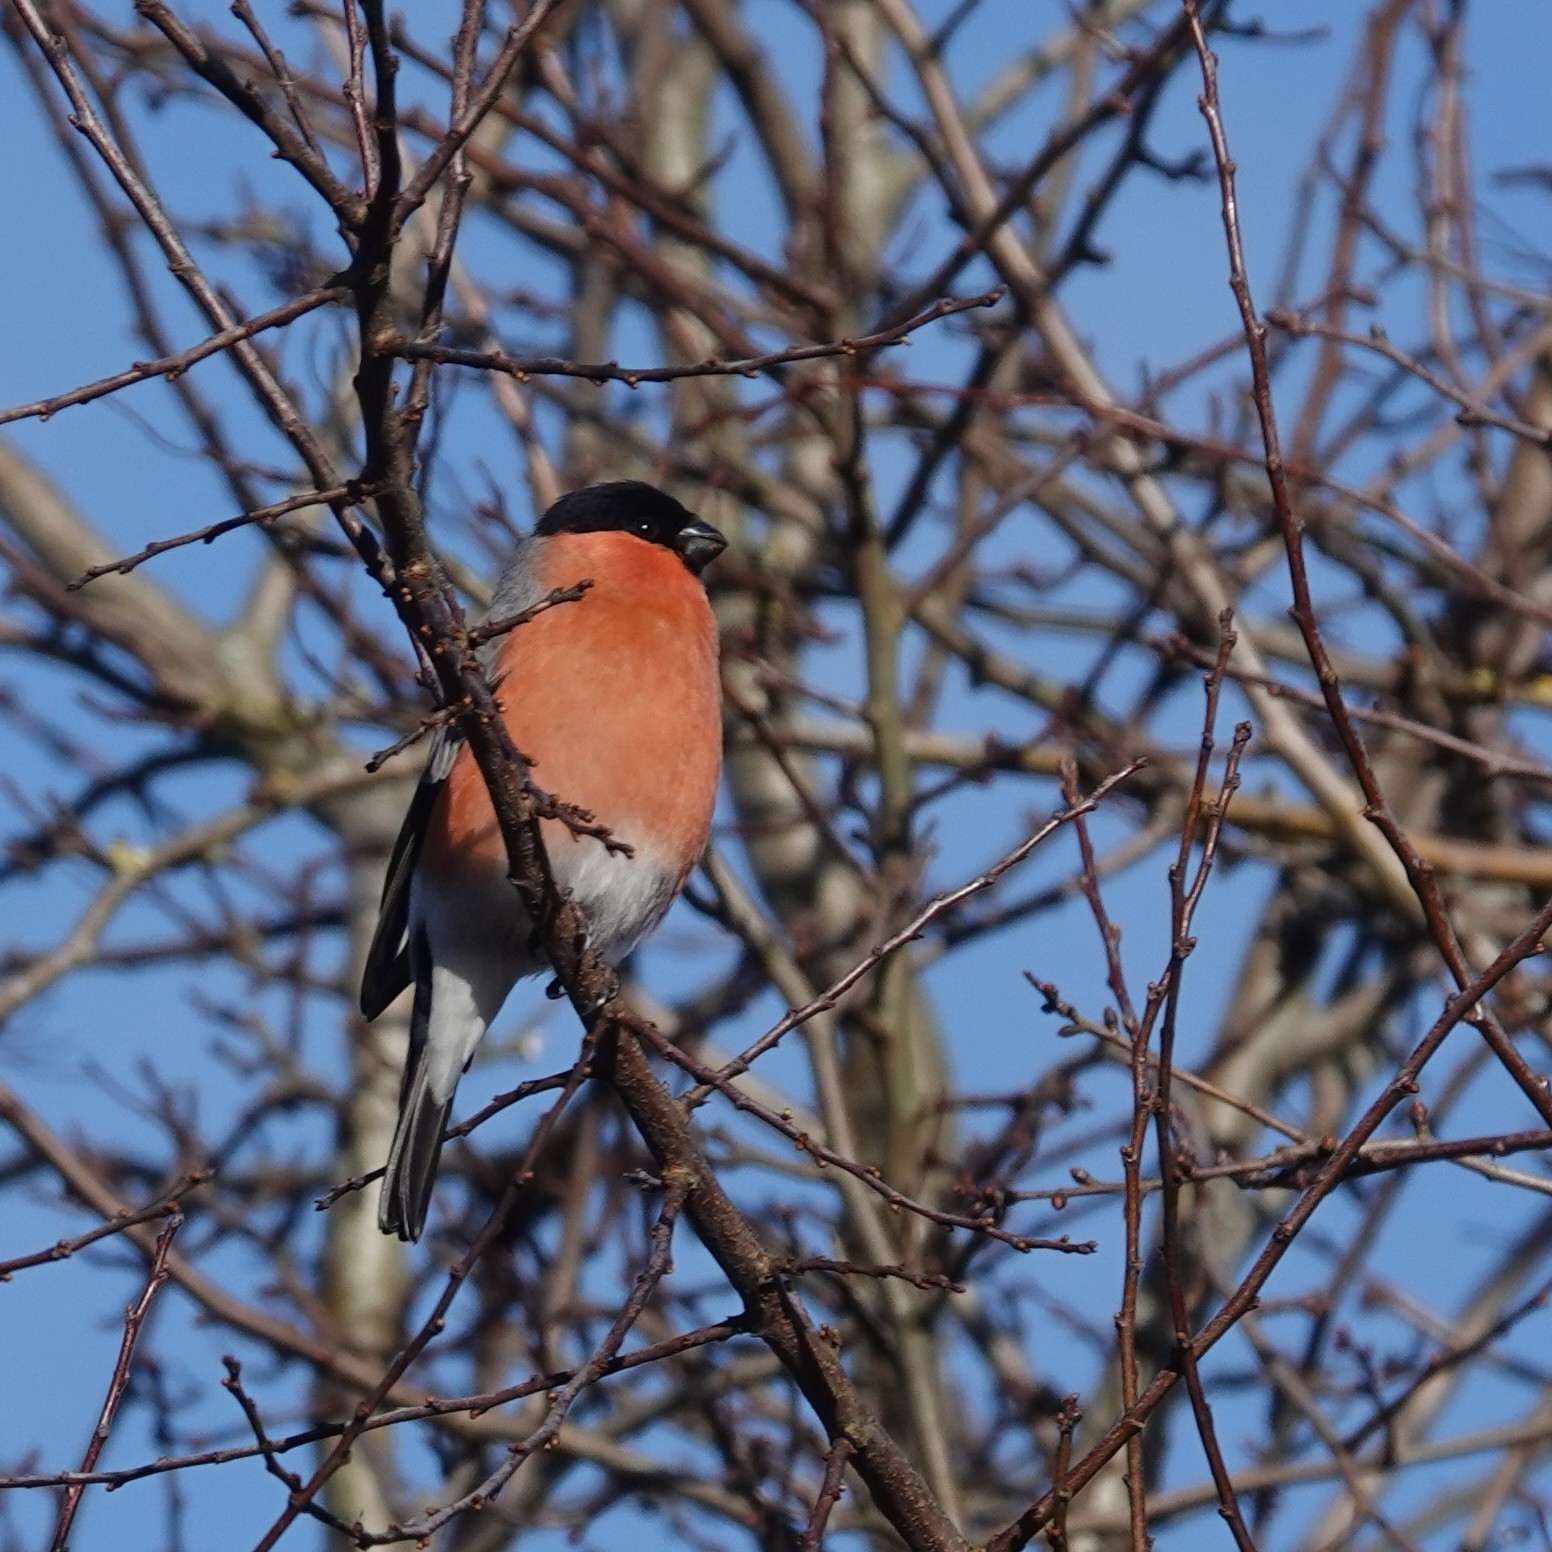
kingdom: Animalia
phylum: Chordata
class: Aves
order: Passeriformes
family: Fringillidae
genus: Pyrrhula
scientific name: Pyrrhula pyrrhula
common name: Eurasian bullfinch
